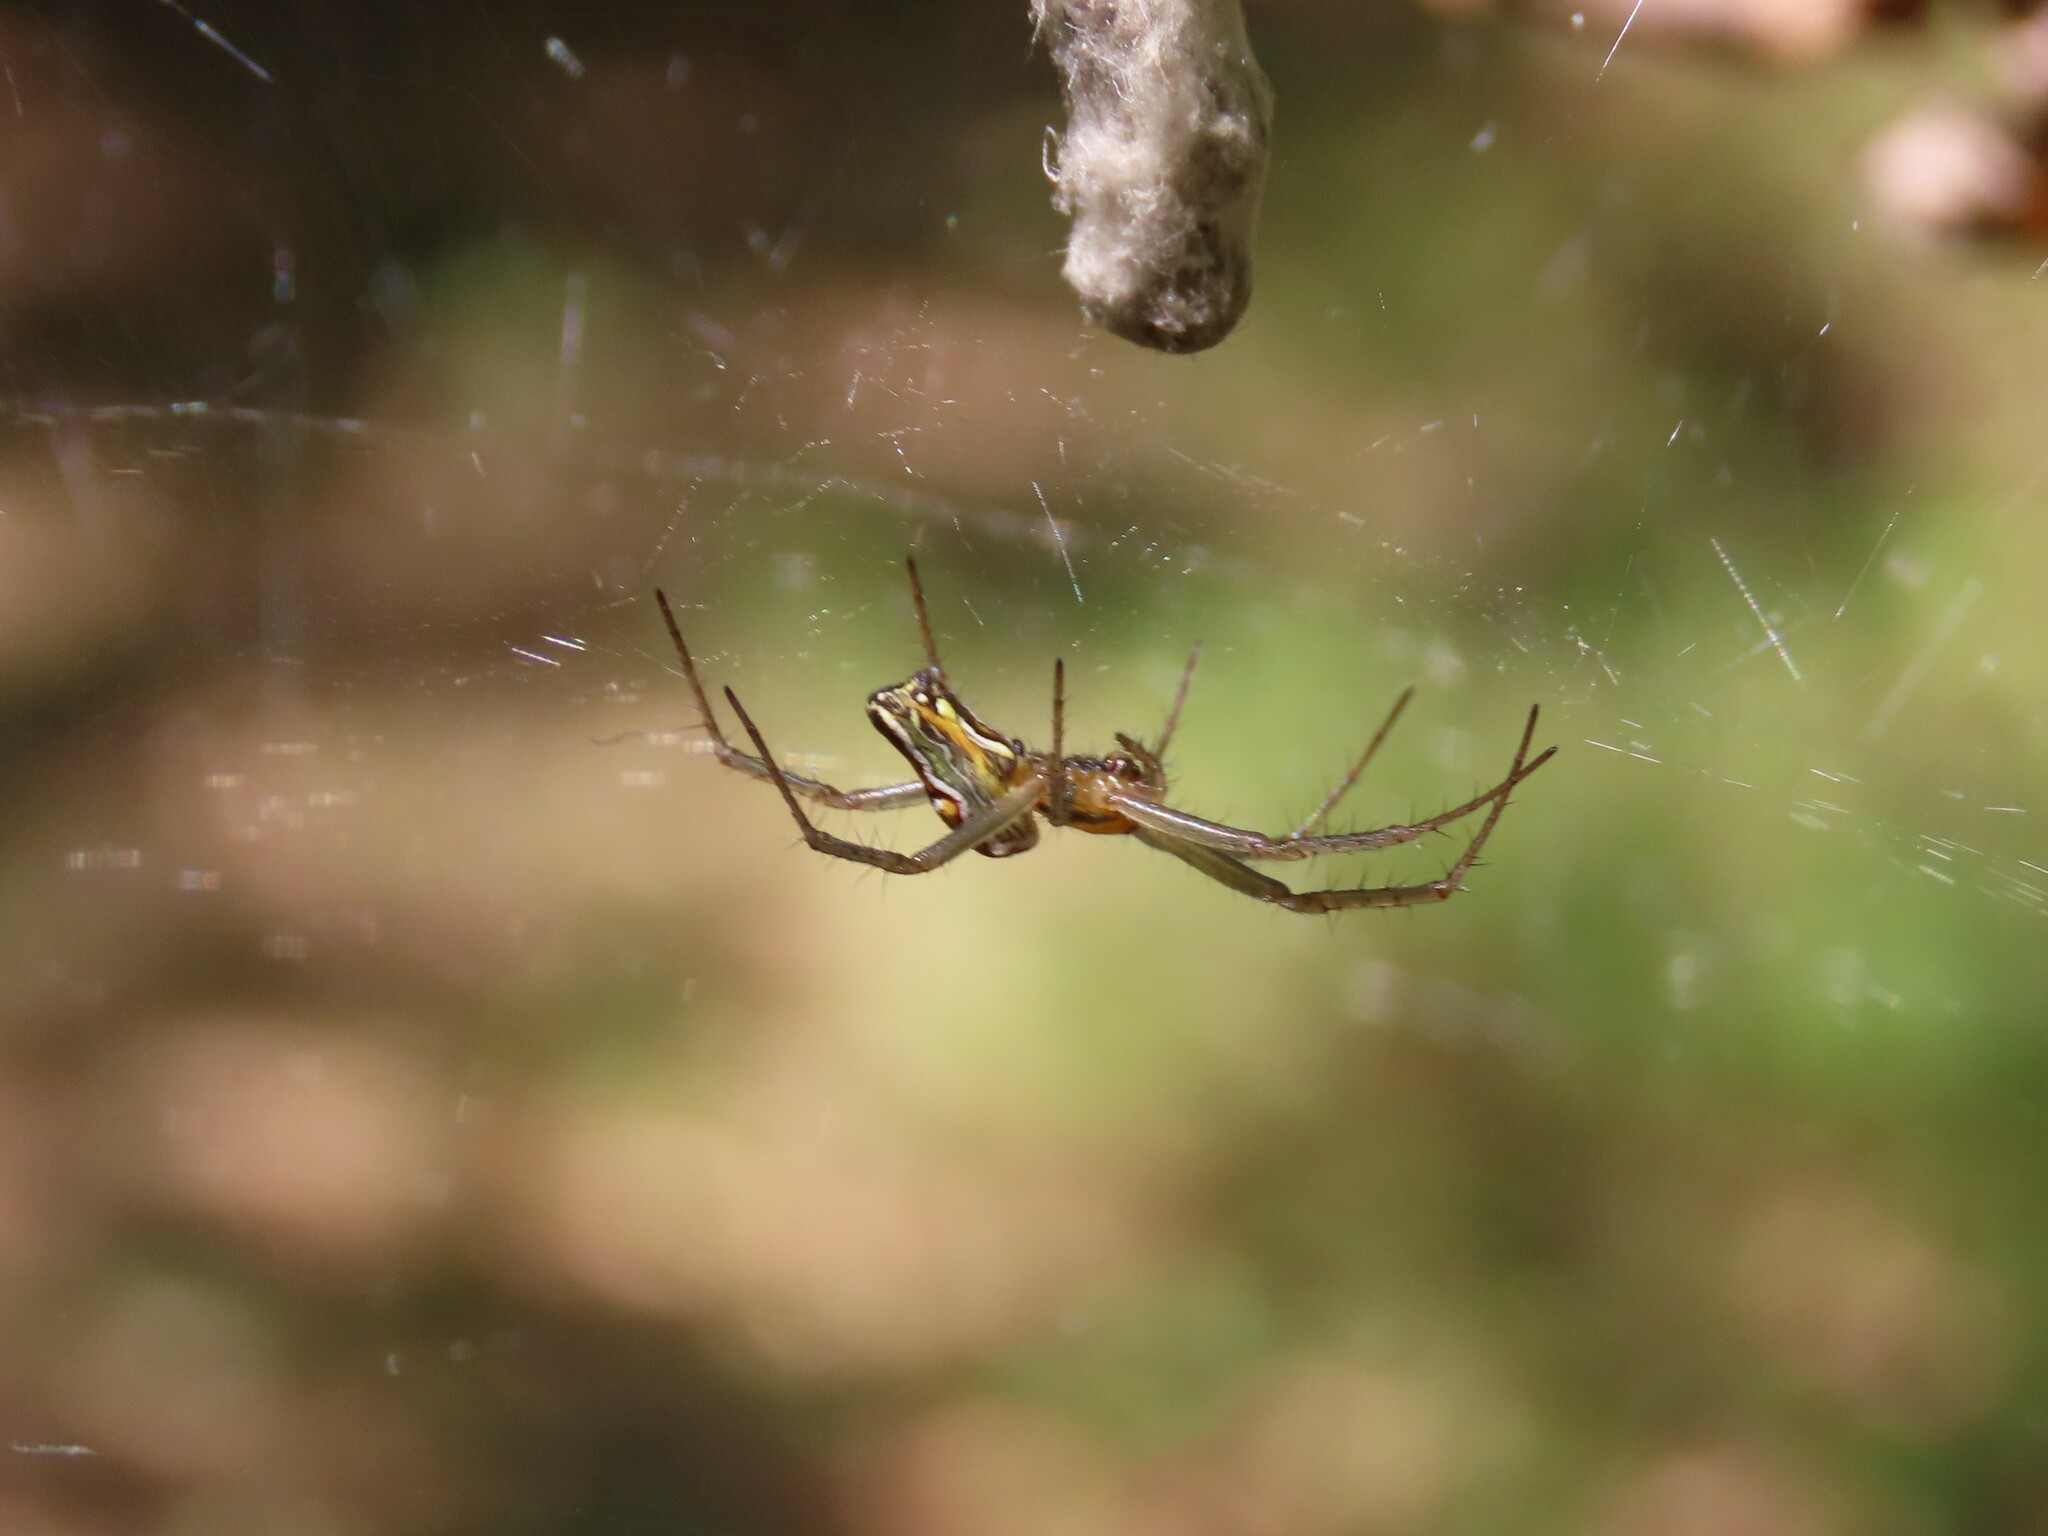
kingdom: Animalia
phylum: Arthropoda
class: Arachnida
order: Araneae
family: Araneidae
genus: Mecynogea
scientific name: Mecynogea lemniscata
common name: Orb weavers
